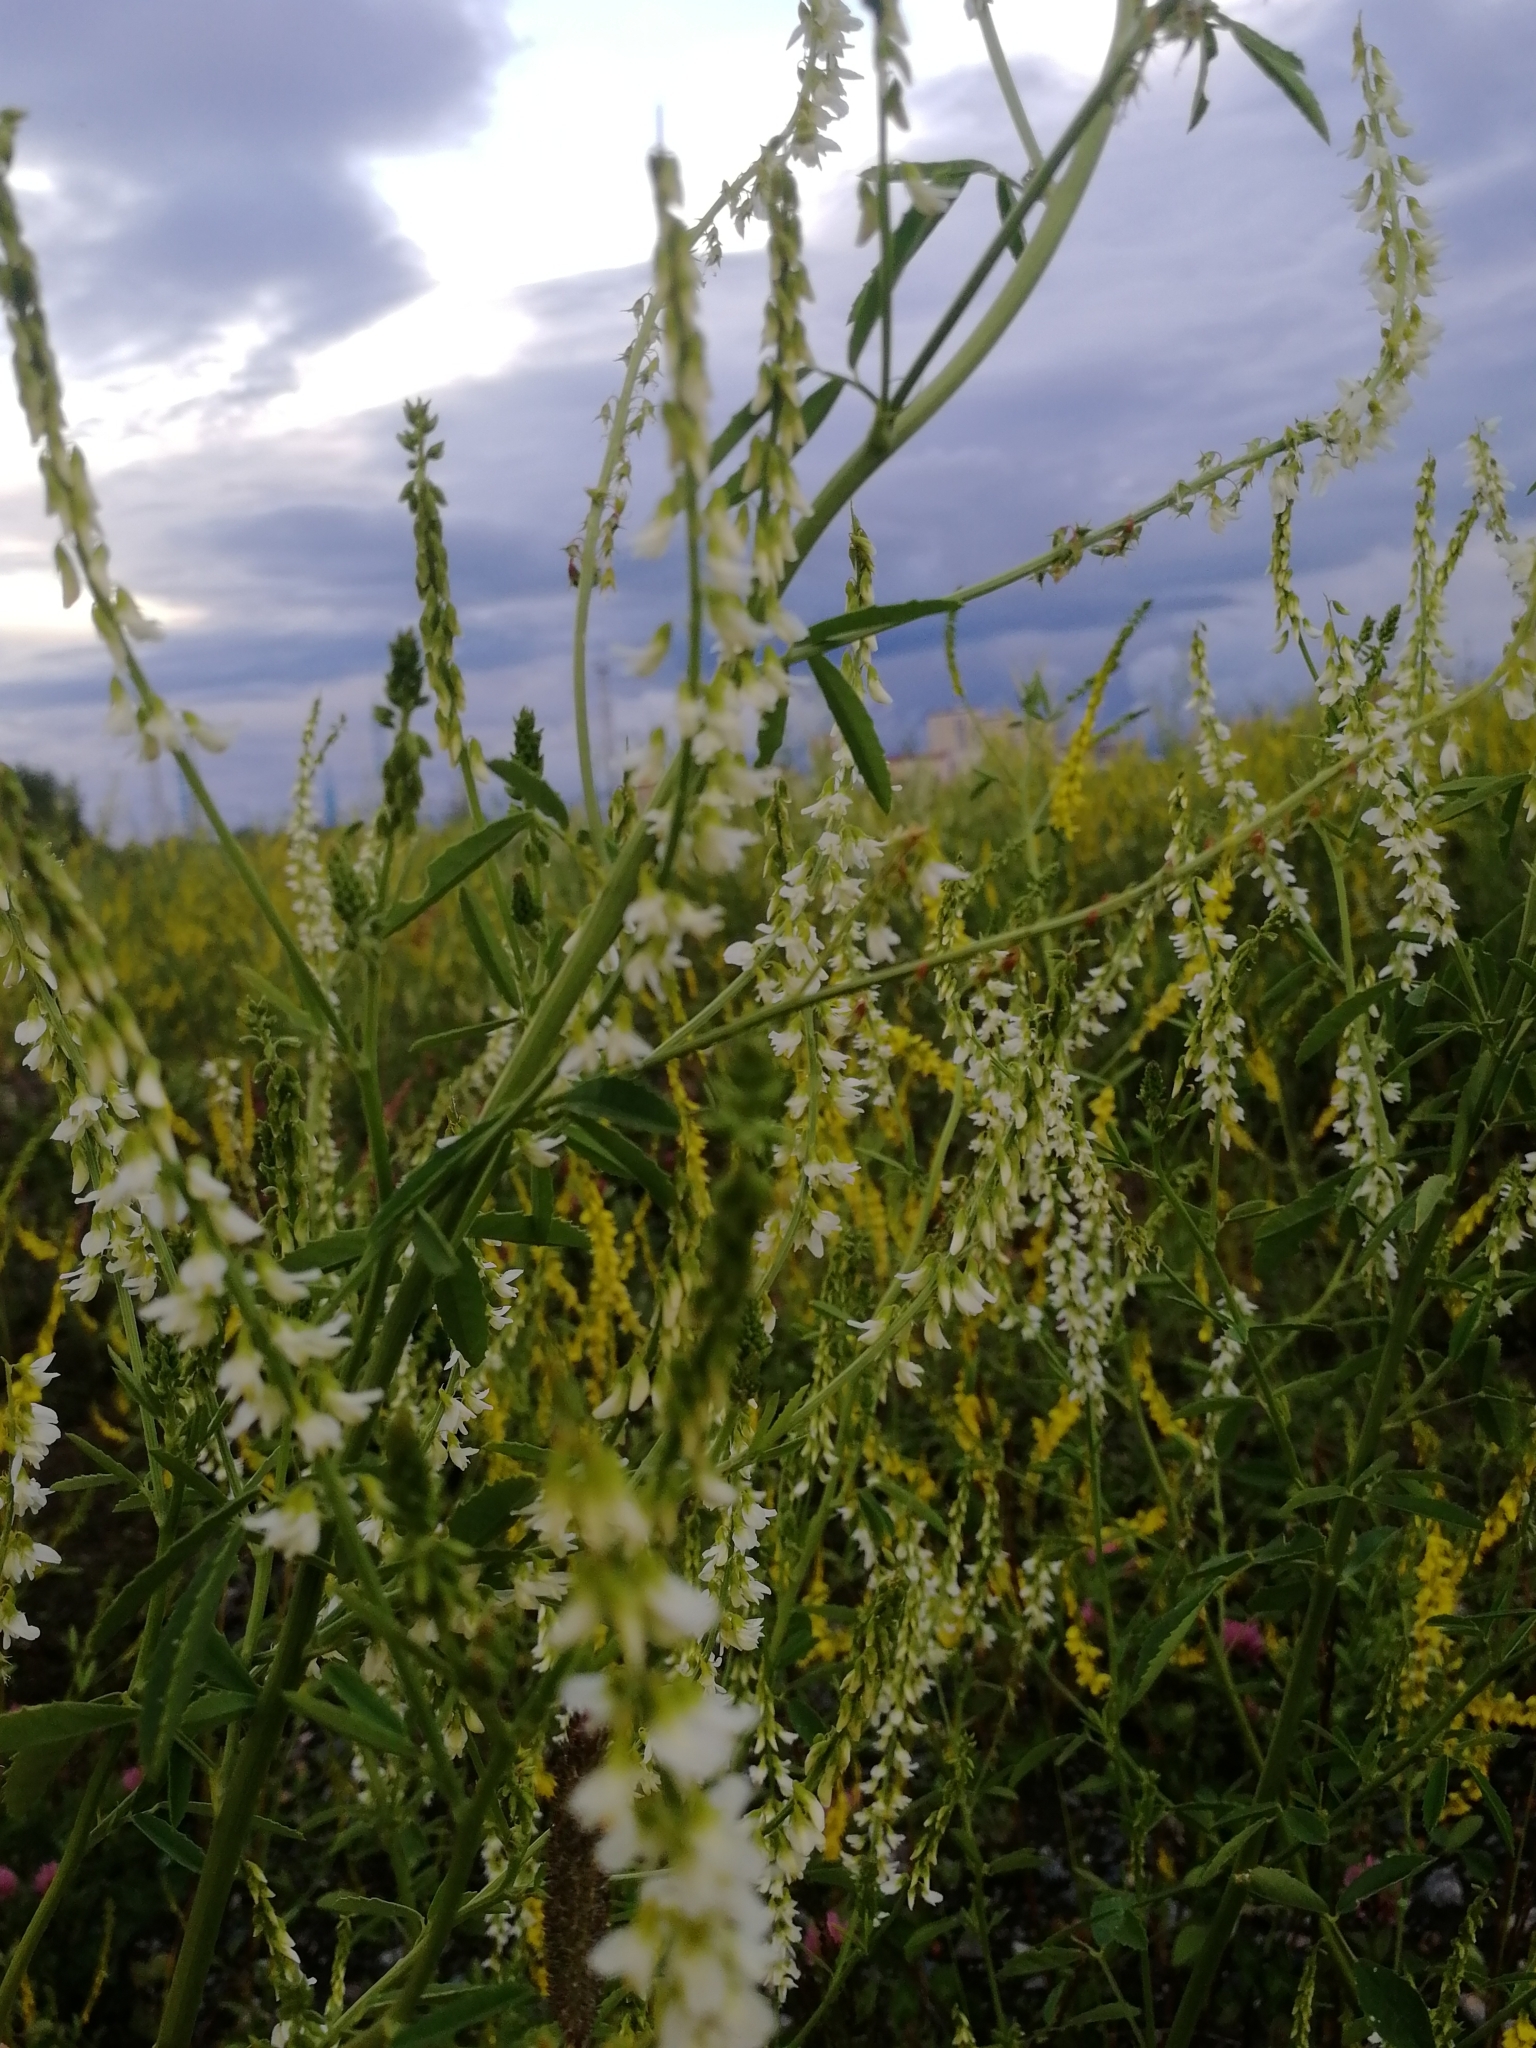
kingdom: Plantae
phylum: Tracheophyta
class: Magnoliopsida
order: Fabales
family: Fabaceae
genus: Melilotus
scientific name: Melilotus albus
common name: White melilot
